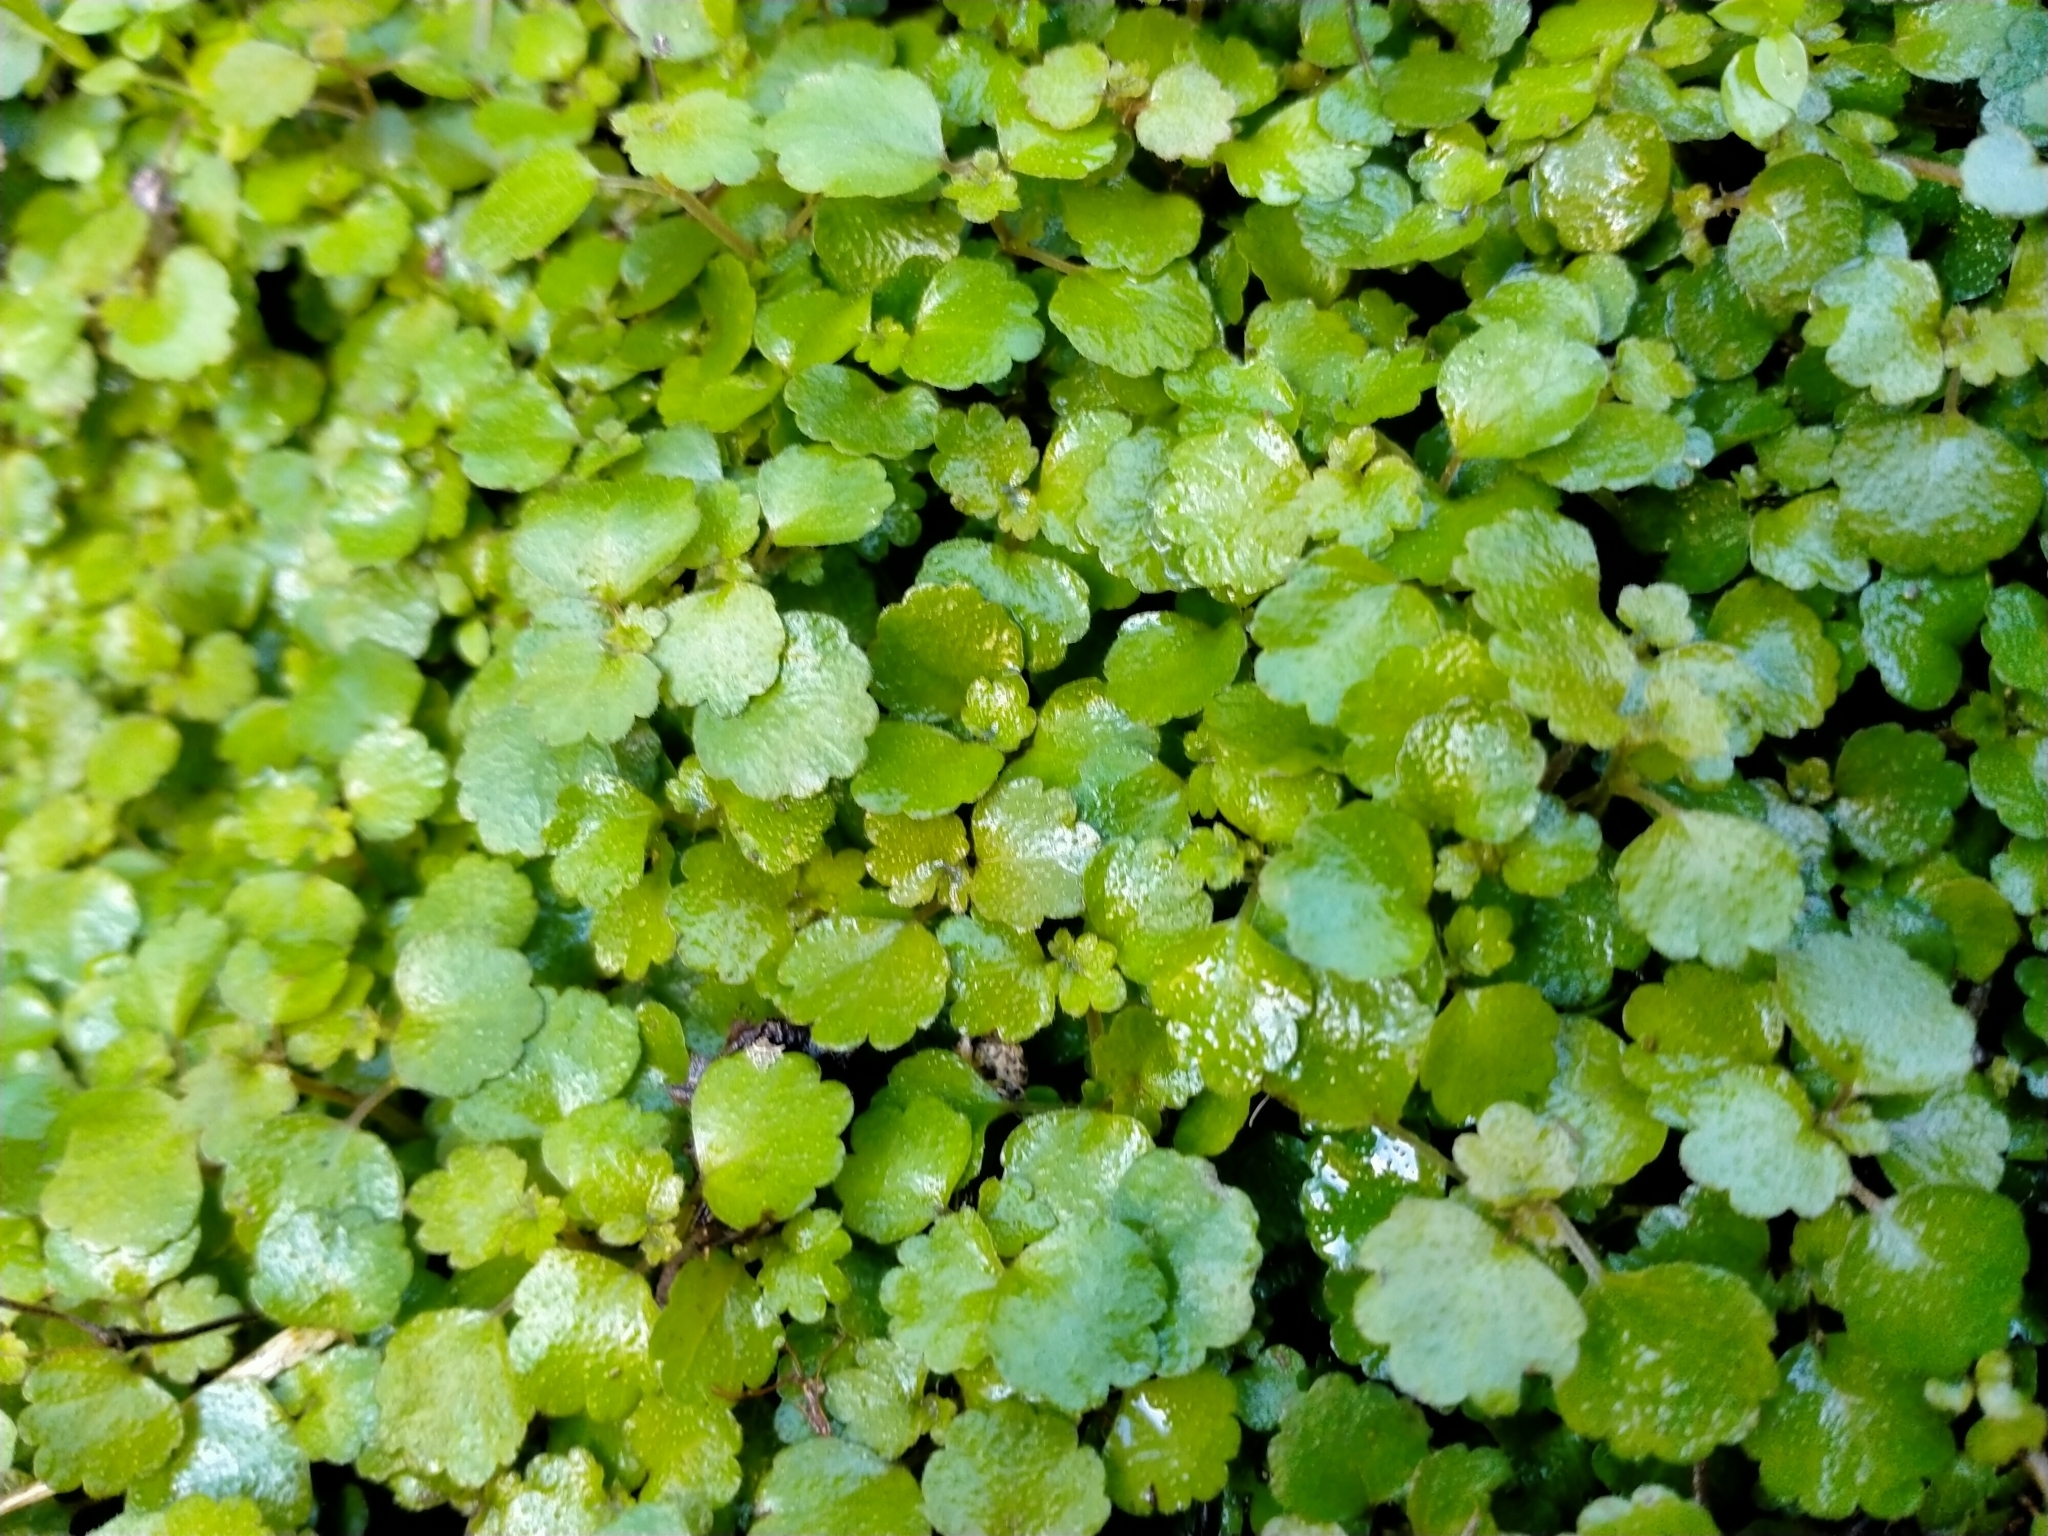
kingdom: Plantae
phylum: Tracheophyta
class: Magnoliopsida
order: Rosales
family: Urticaceae
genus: Australina
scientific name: Australina pusilla
